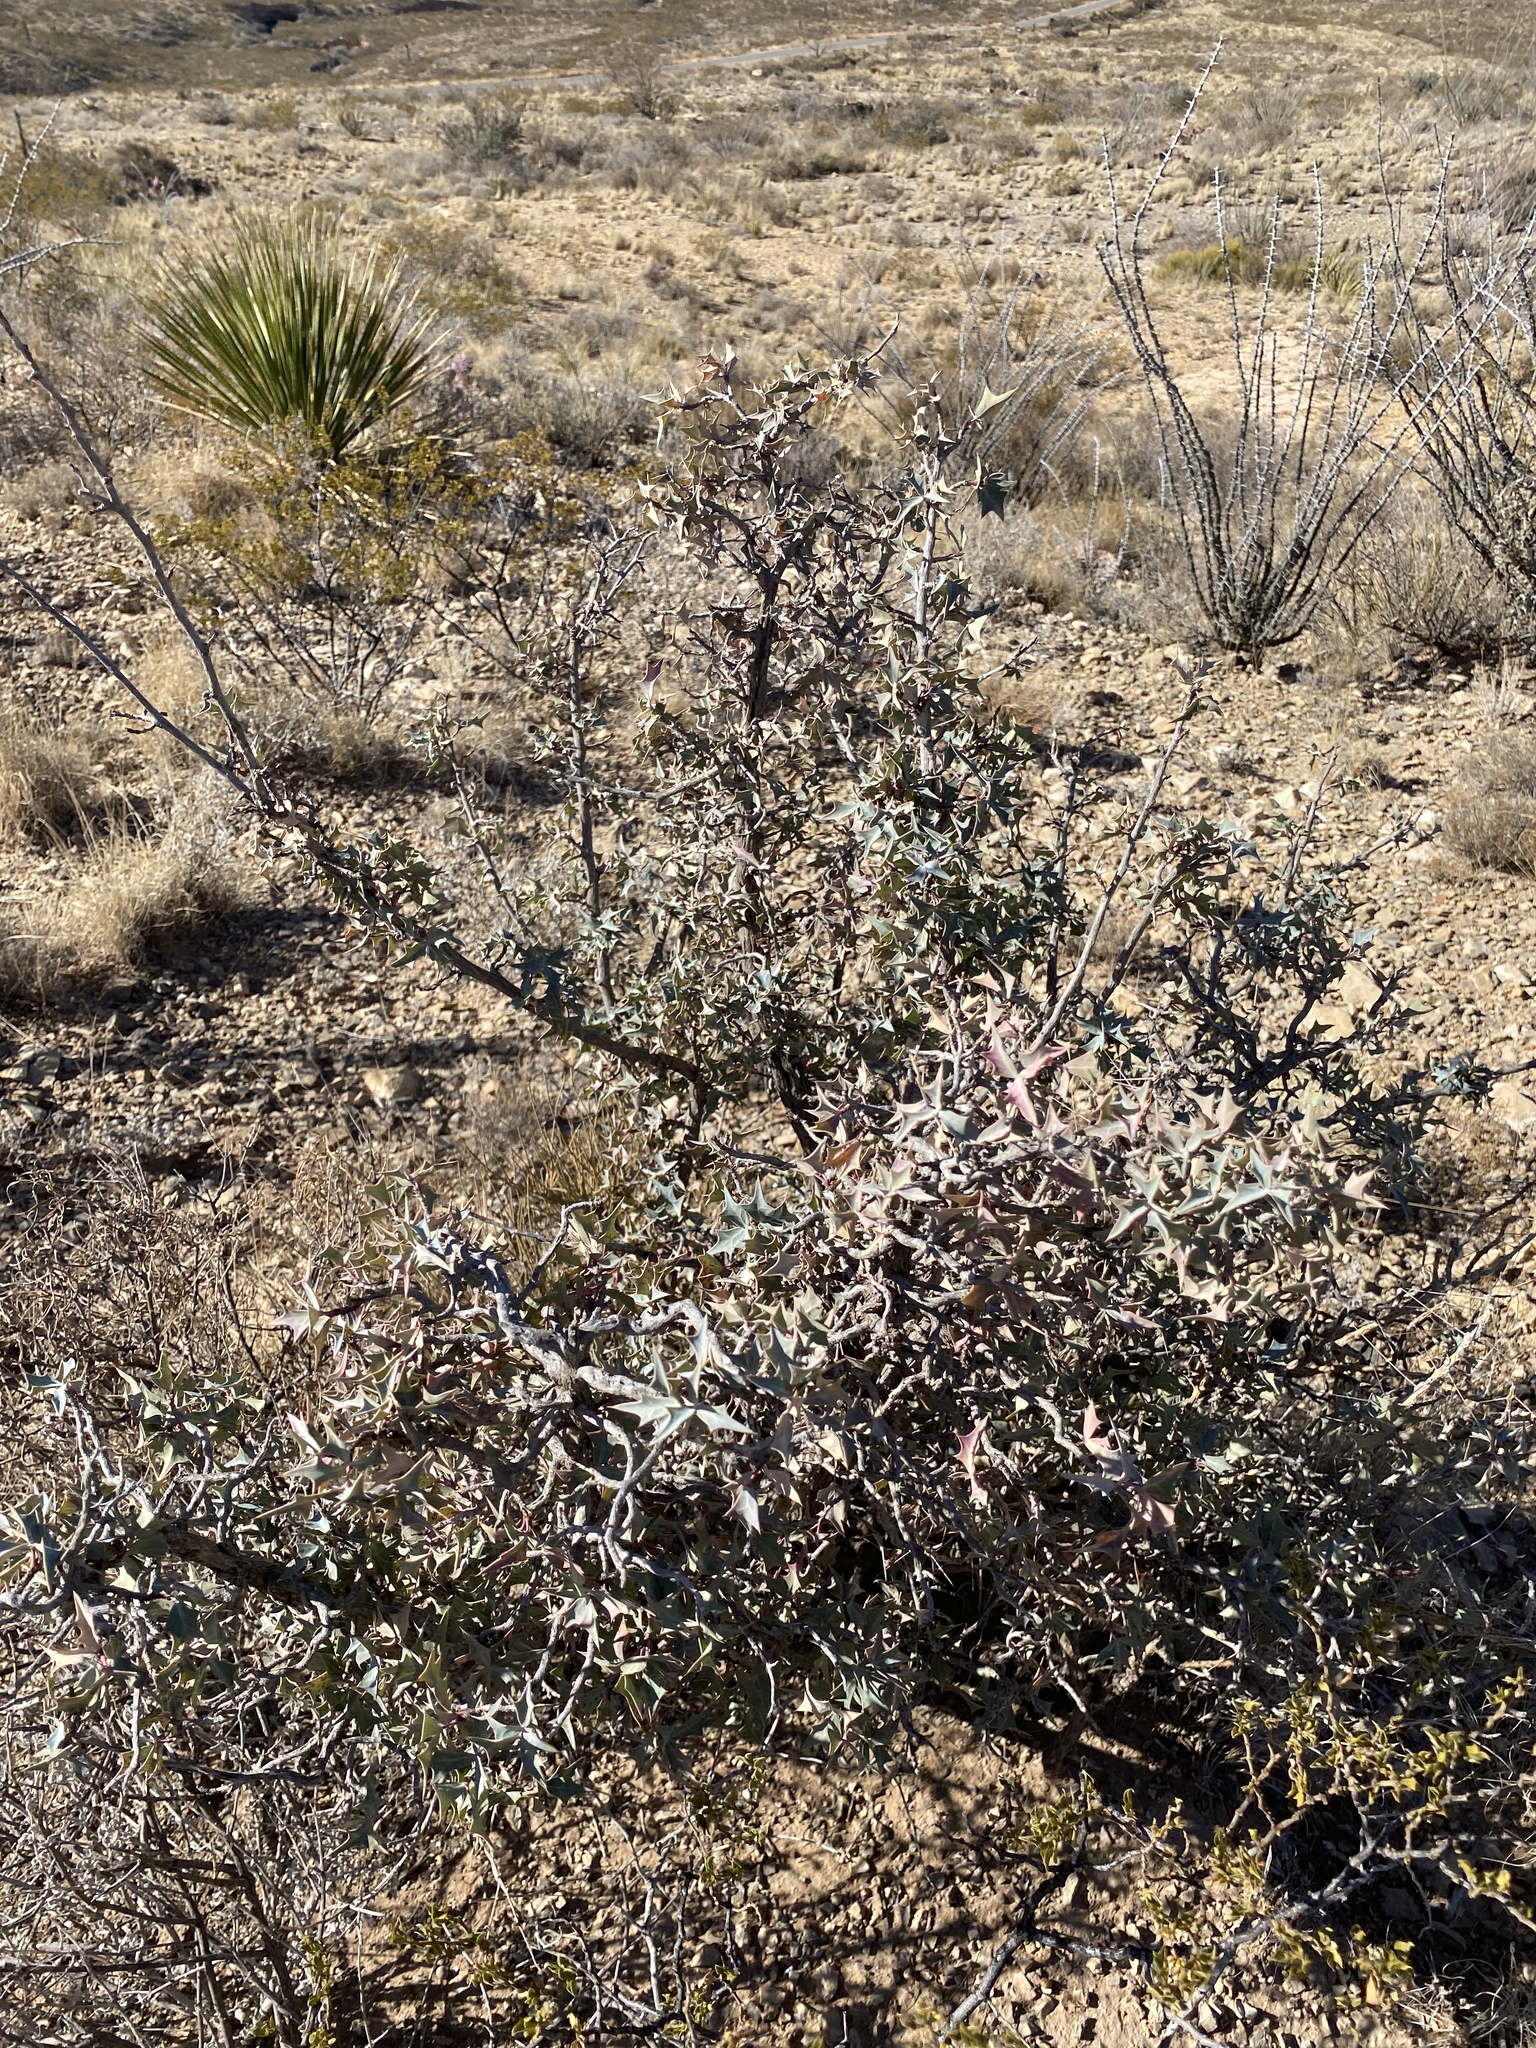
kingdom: Plantae
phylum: Tracheophyta
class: Magnoliopsida
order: Ranunculales
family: Berberidaceae
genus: Alloberberis
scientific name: Alloberberis trifoliolata
